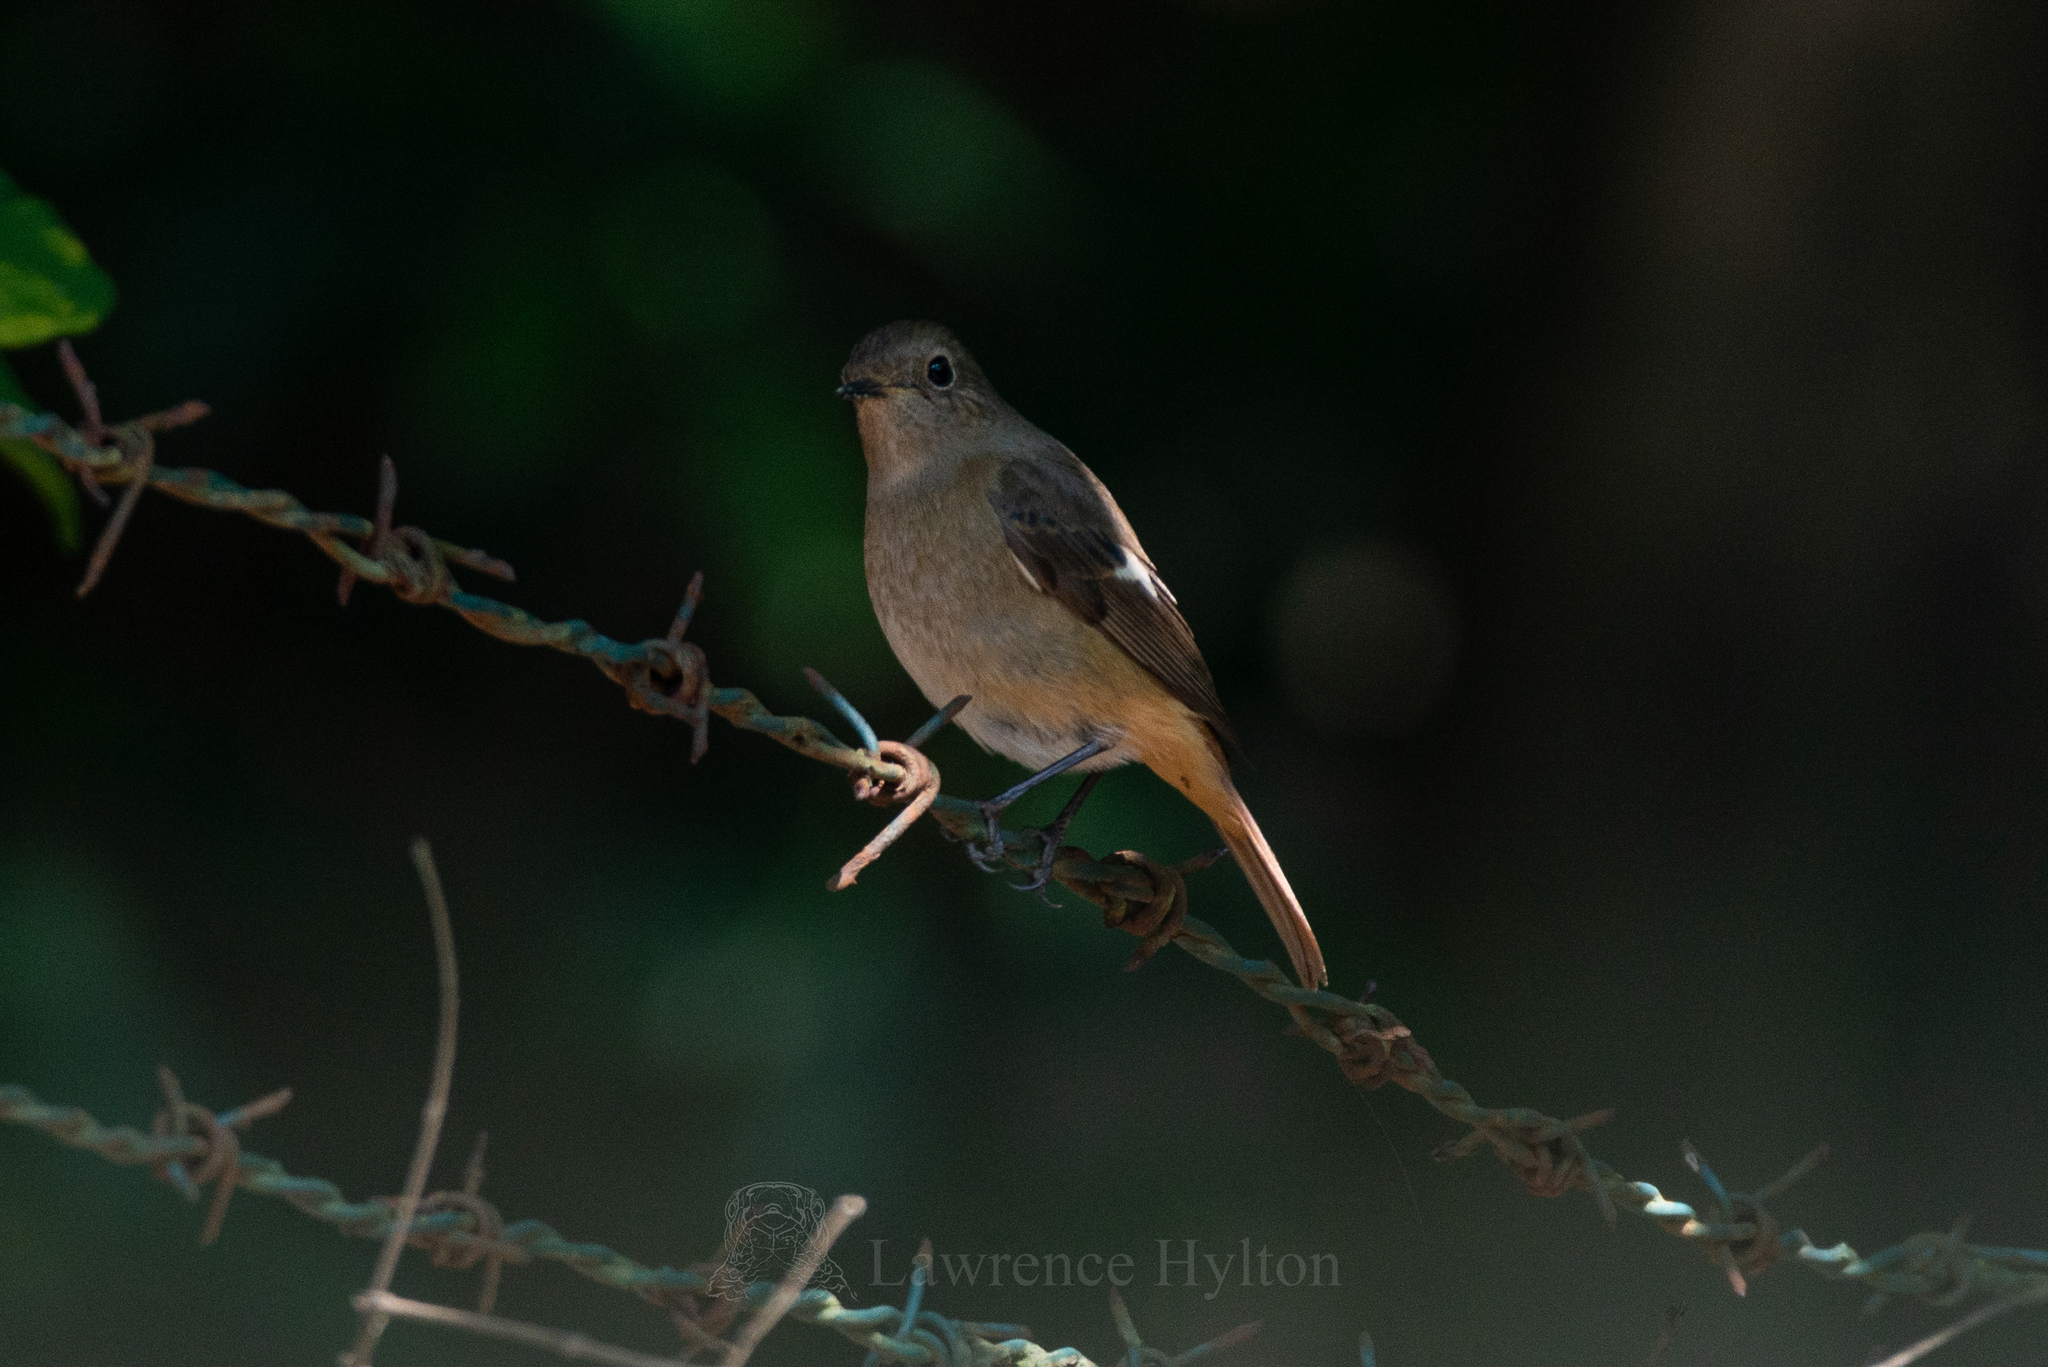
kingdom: Animalia
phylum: Chordata
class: Aves
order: Passeriformes
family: Muscicapidae
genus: Phoenicurus
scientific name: Phoenicurus auroreus
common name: Daurian redstart
